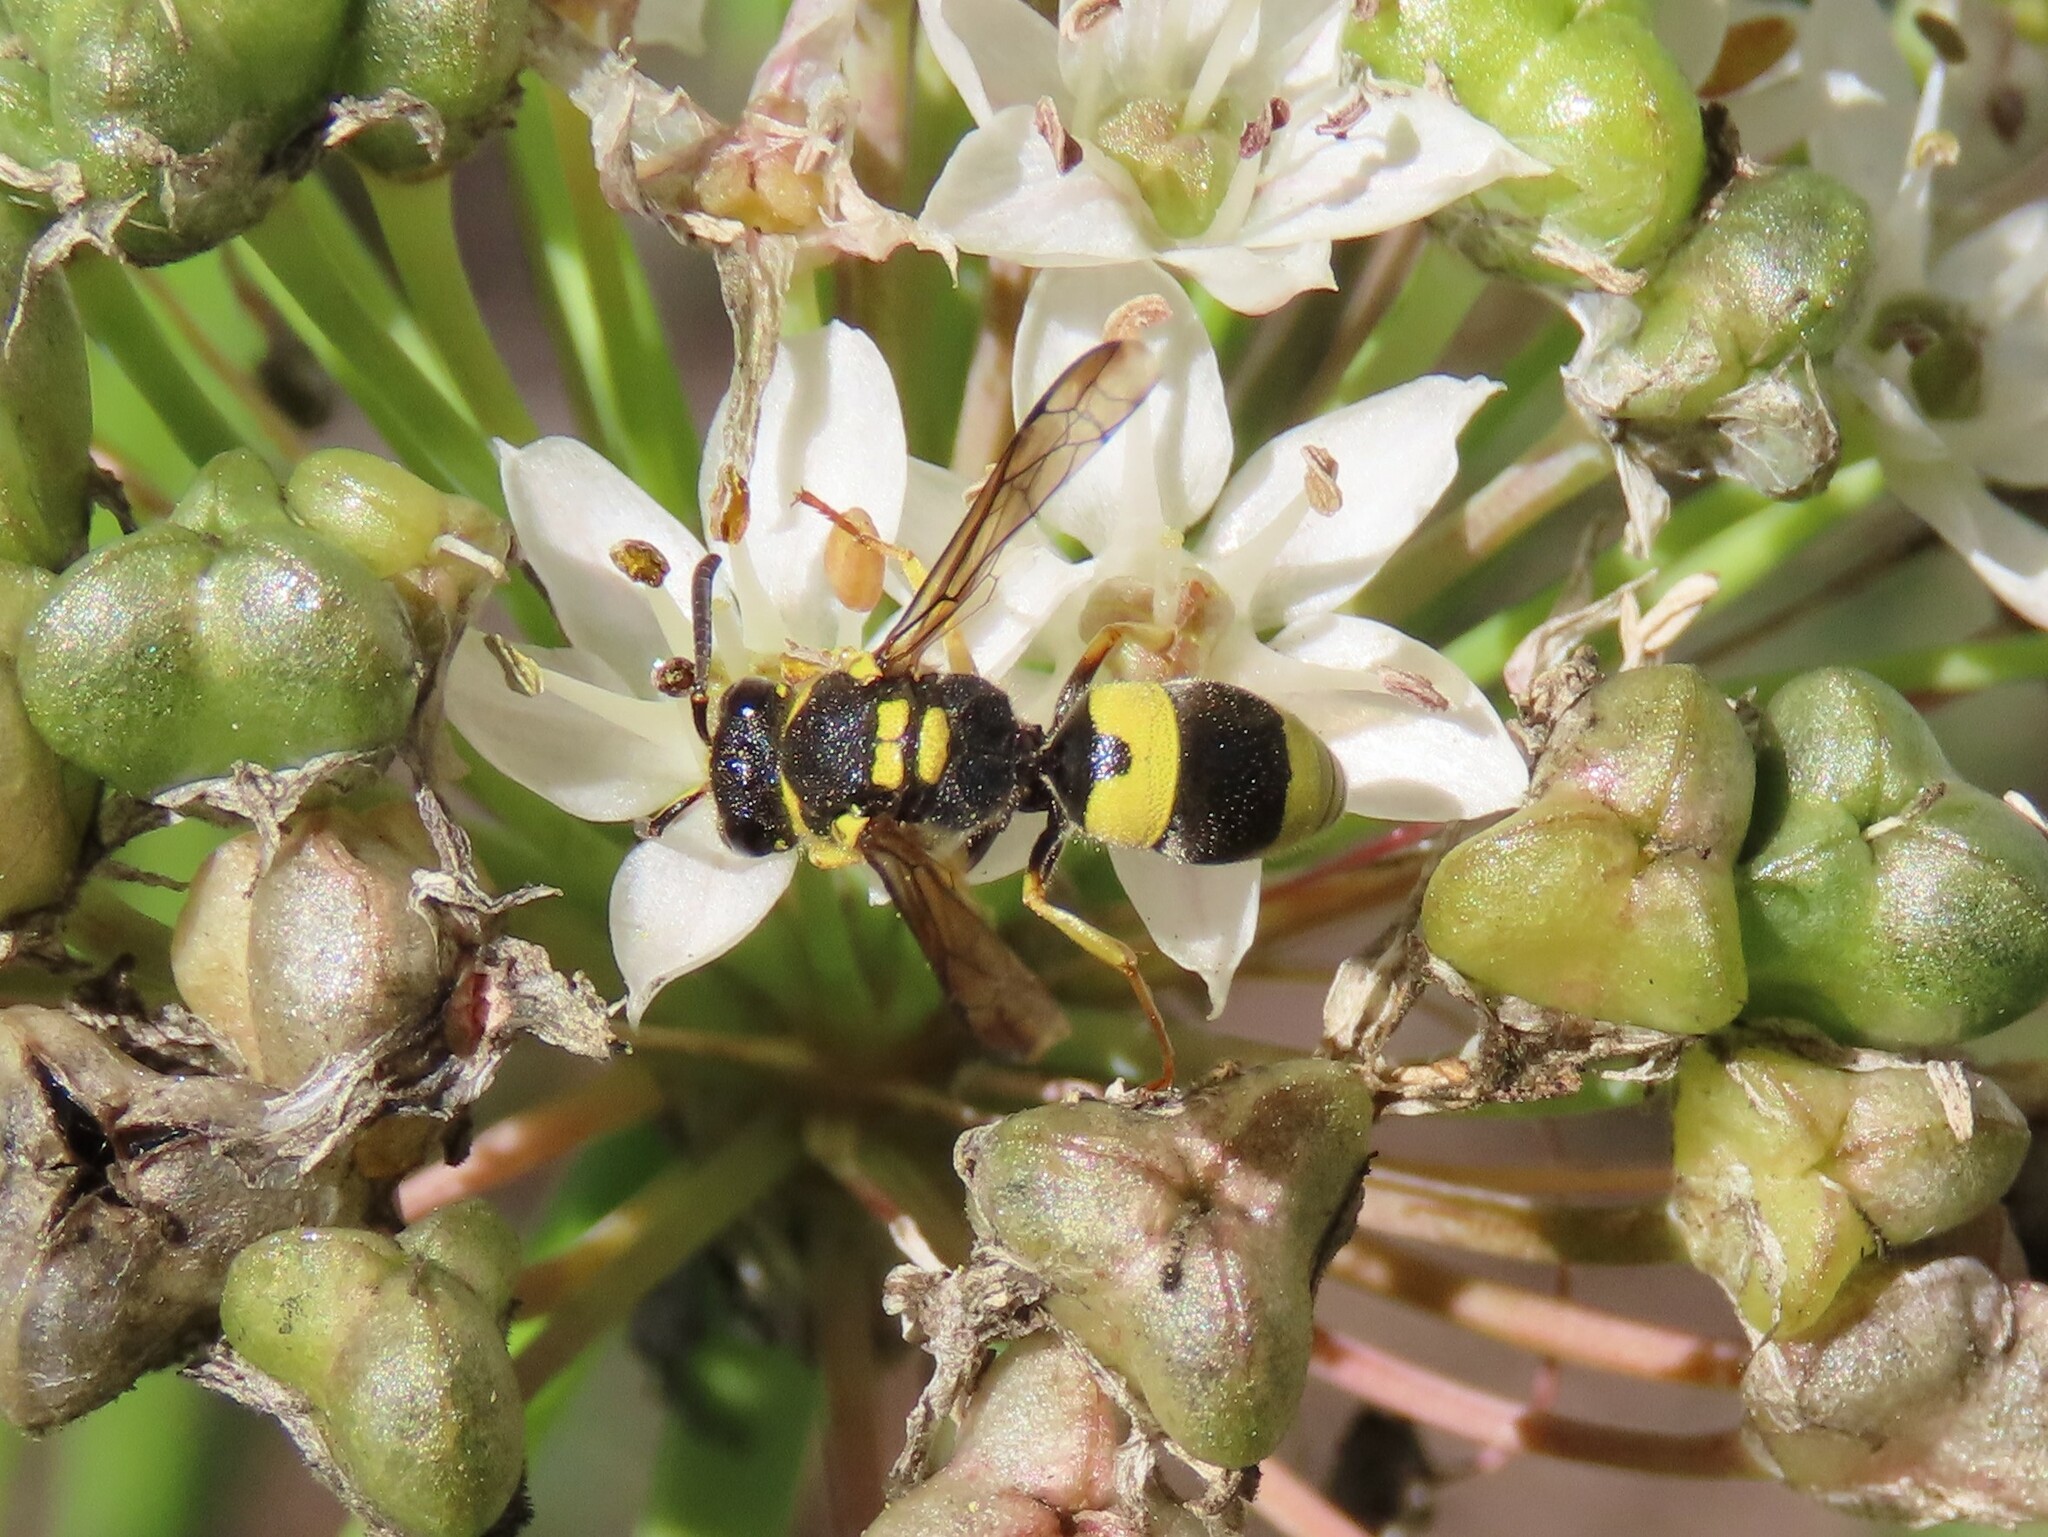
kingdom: Animalia
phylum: Arthropoda
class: Insecta
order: Hymenoptera
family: Vespidae
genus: Ancistrocerus
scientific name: Ancistrocerus gazella
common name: European tube wasp
